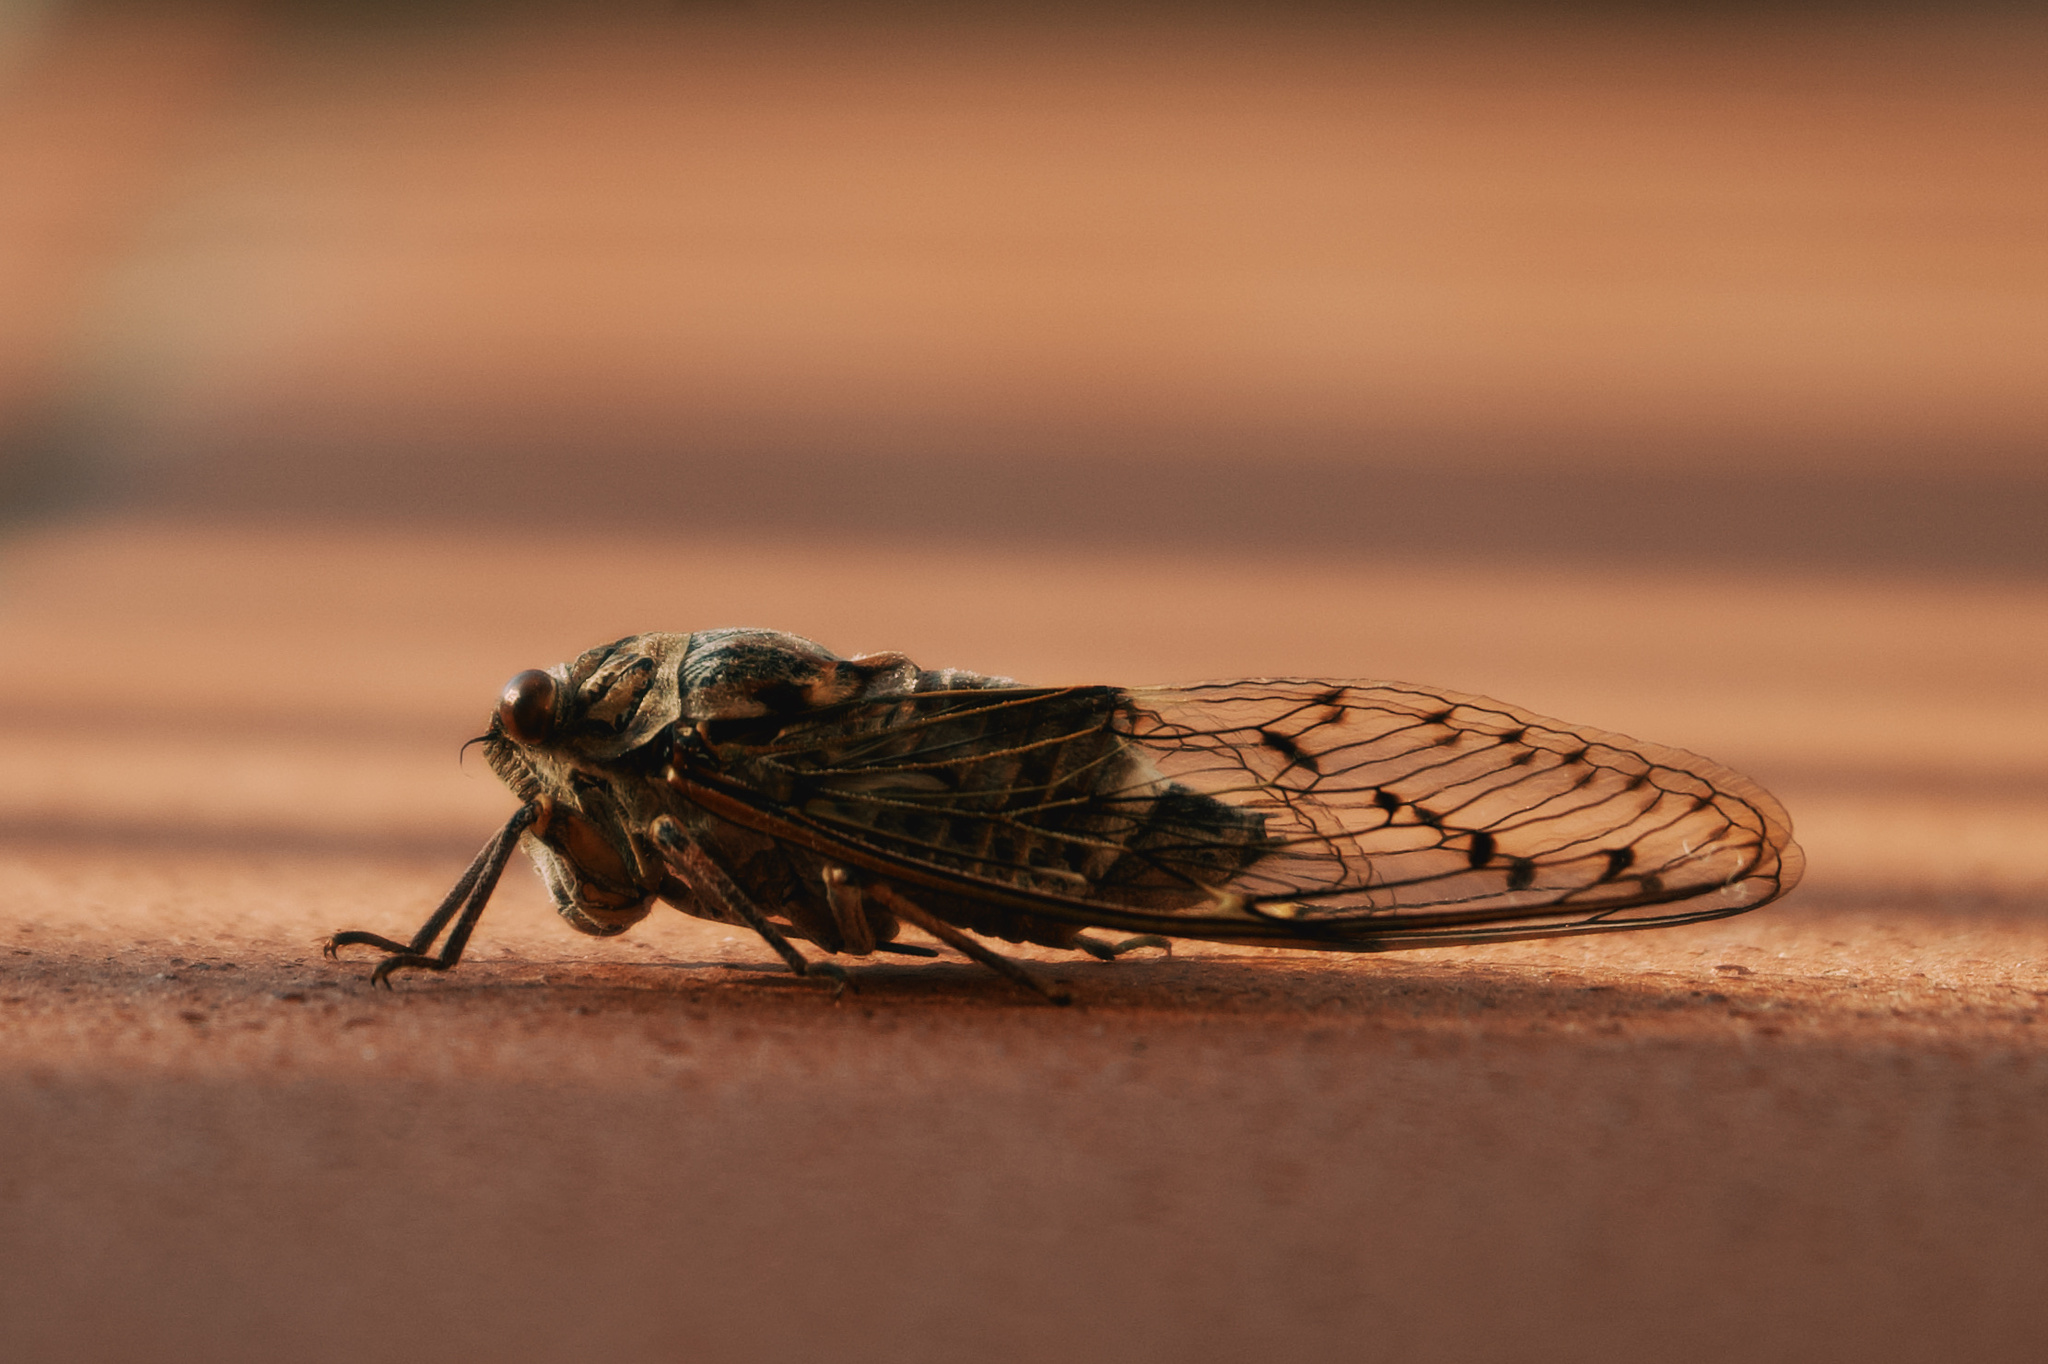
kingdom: Animalia
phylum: Arthropoda
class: Insecta
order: Hemiptera
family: Cicadidae
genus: Cicada
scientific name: Cicada orni
